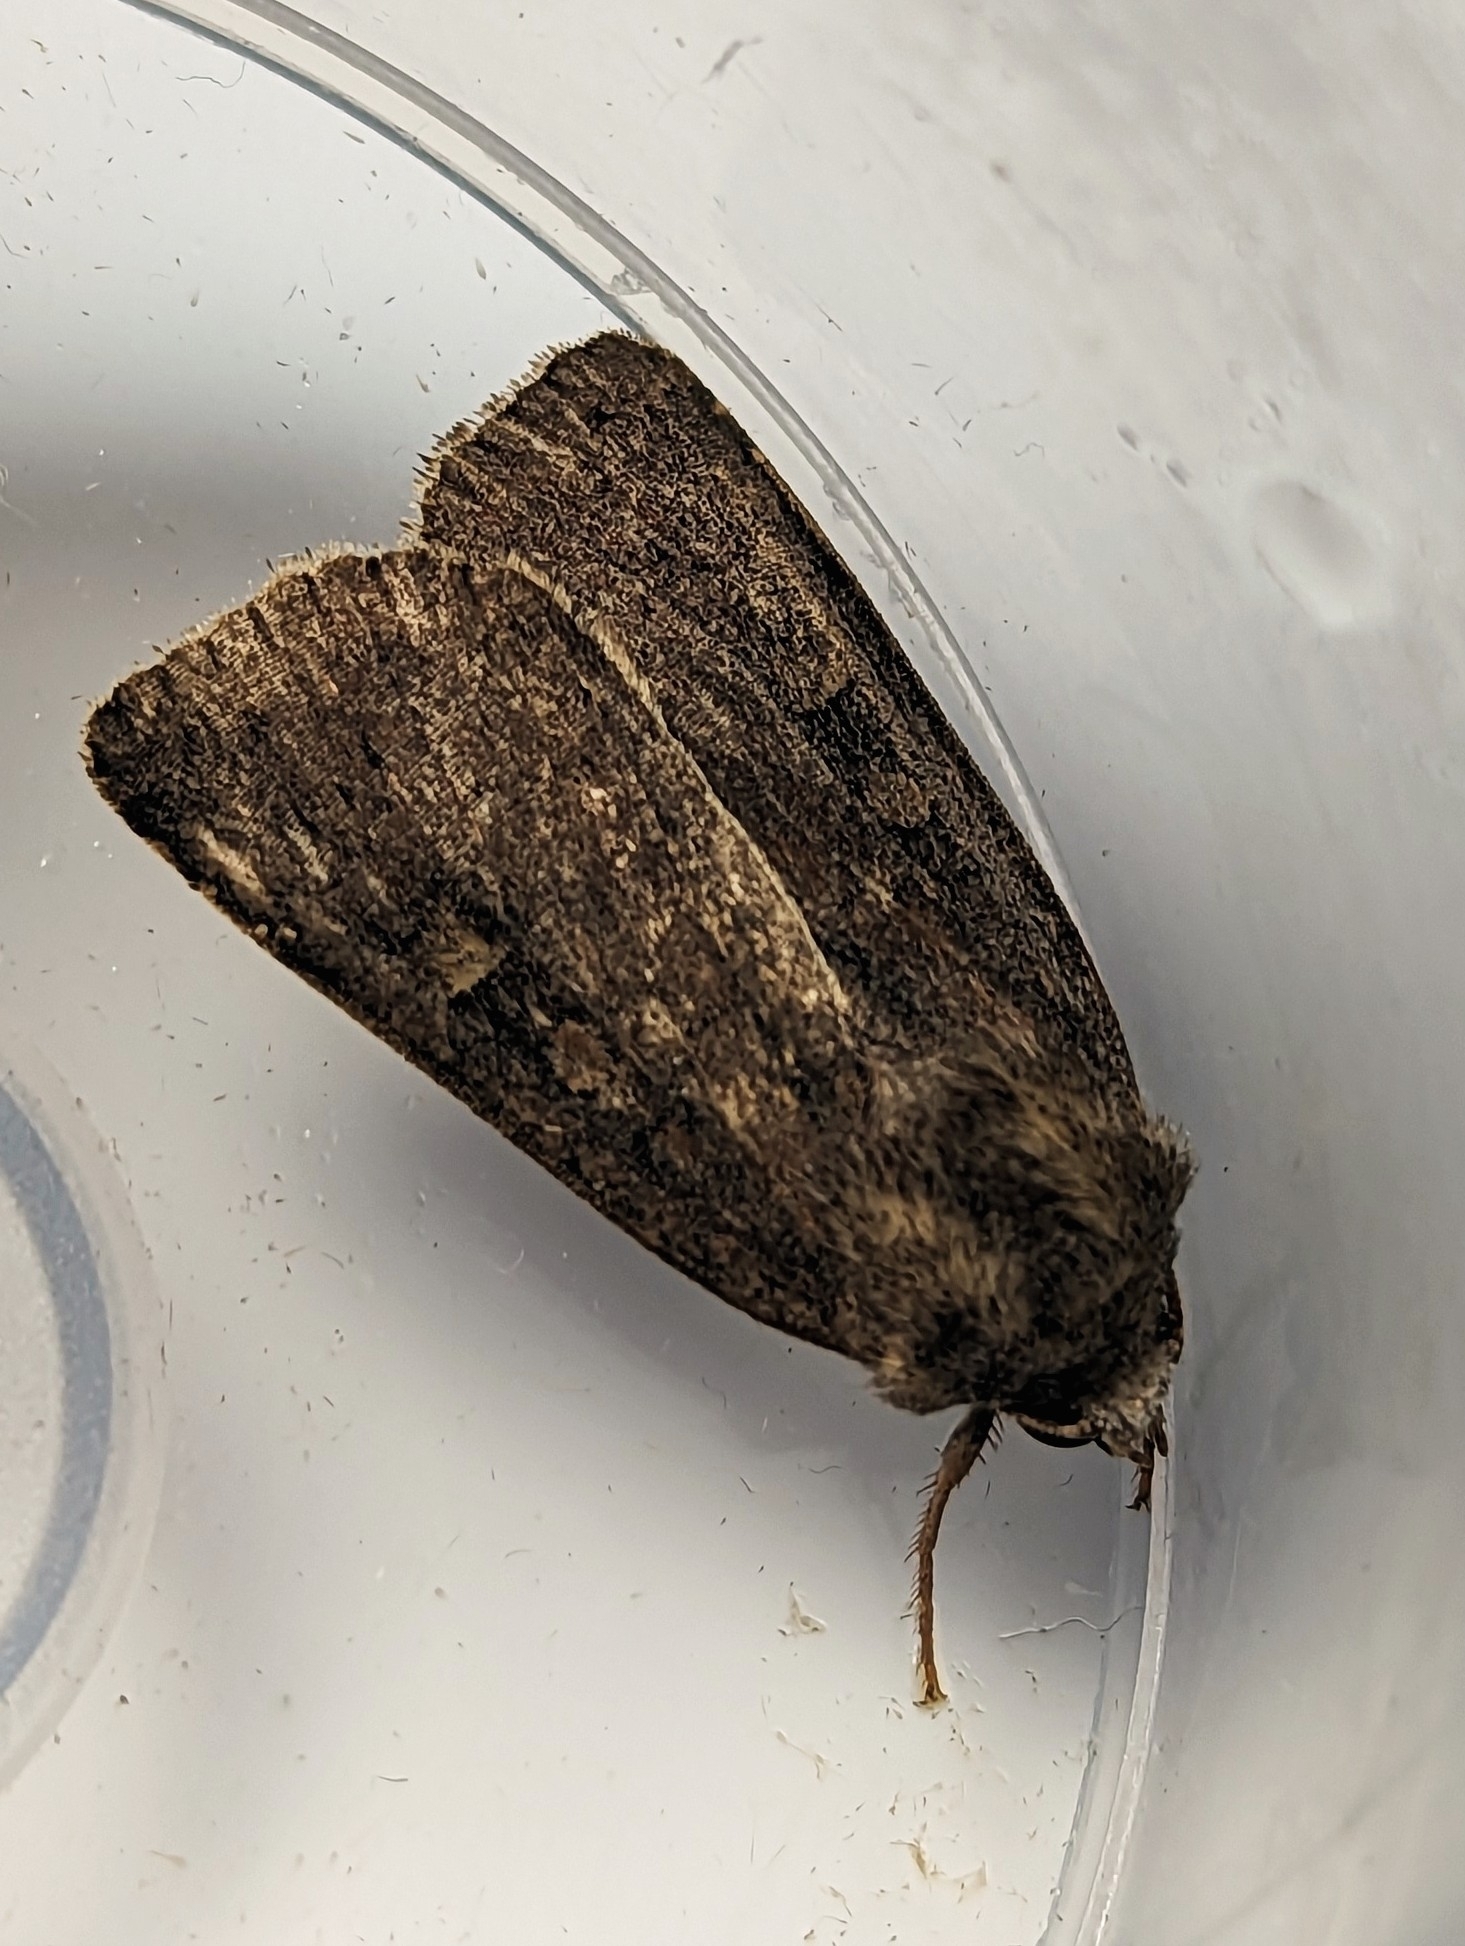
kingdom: Animalia
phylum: Arthropoda
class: Insecta
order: Lepidoptera
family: Noctuidae
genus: Xestia
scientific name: Xestia xanthographa
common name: Square-spot rustic
